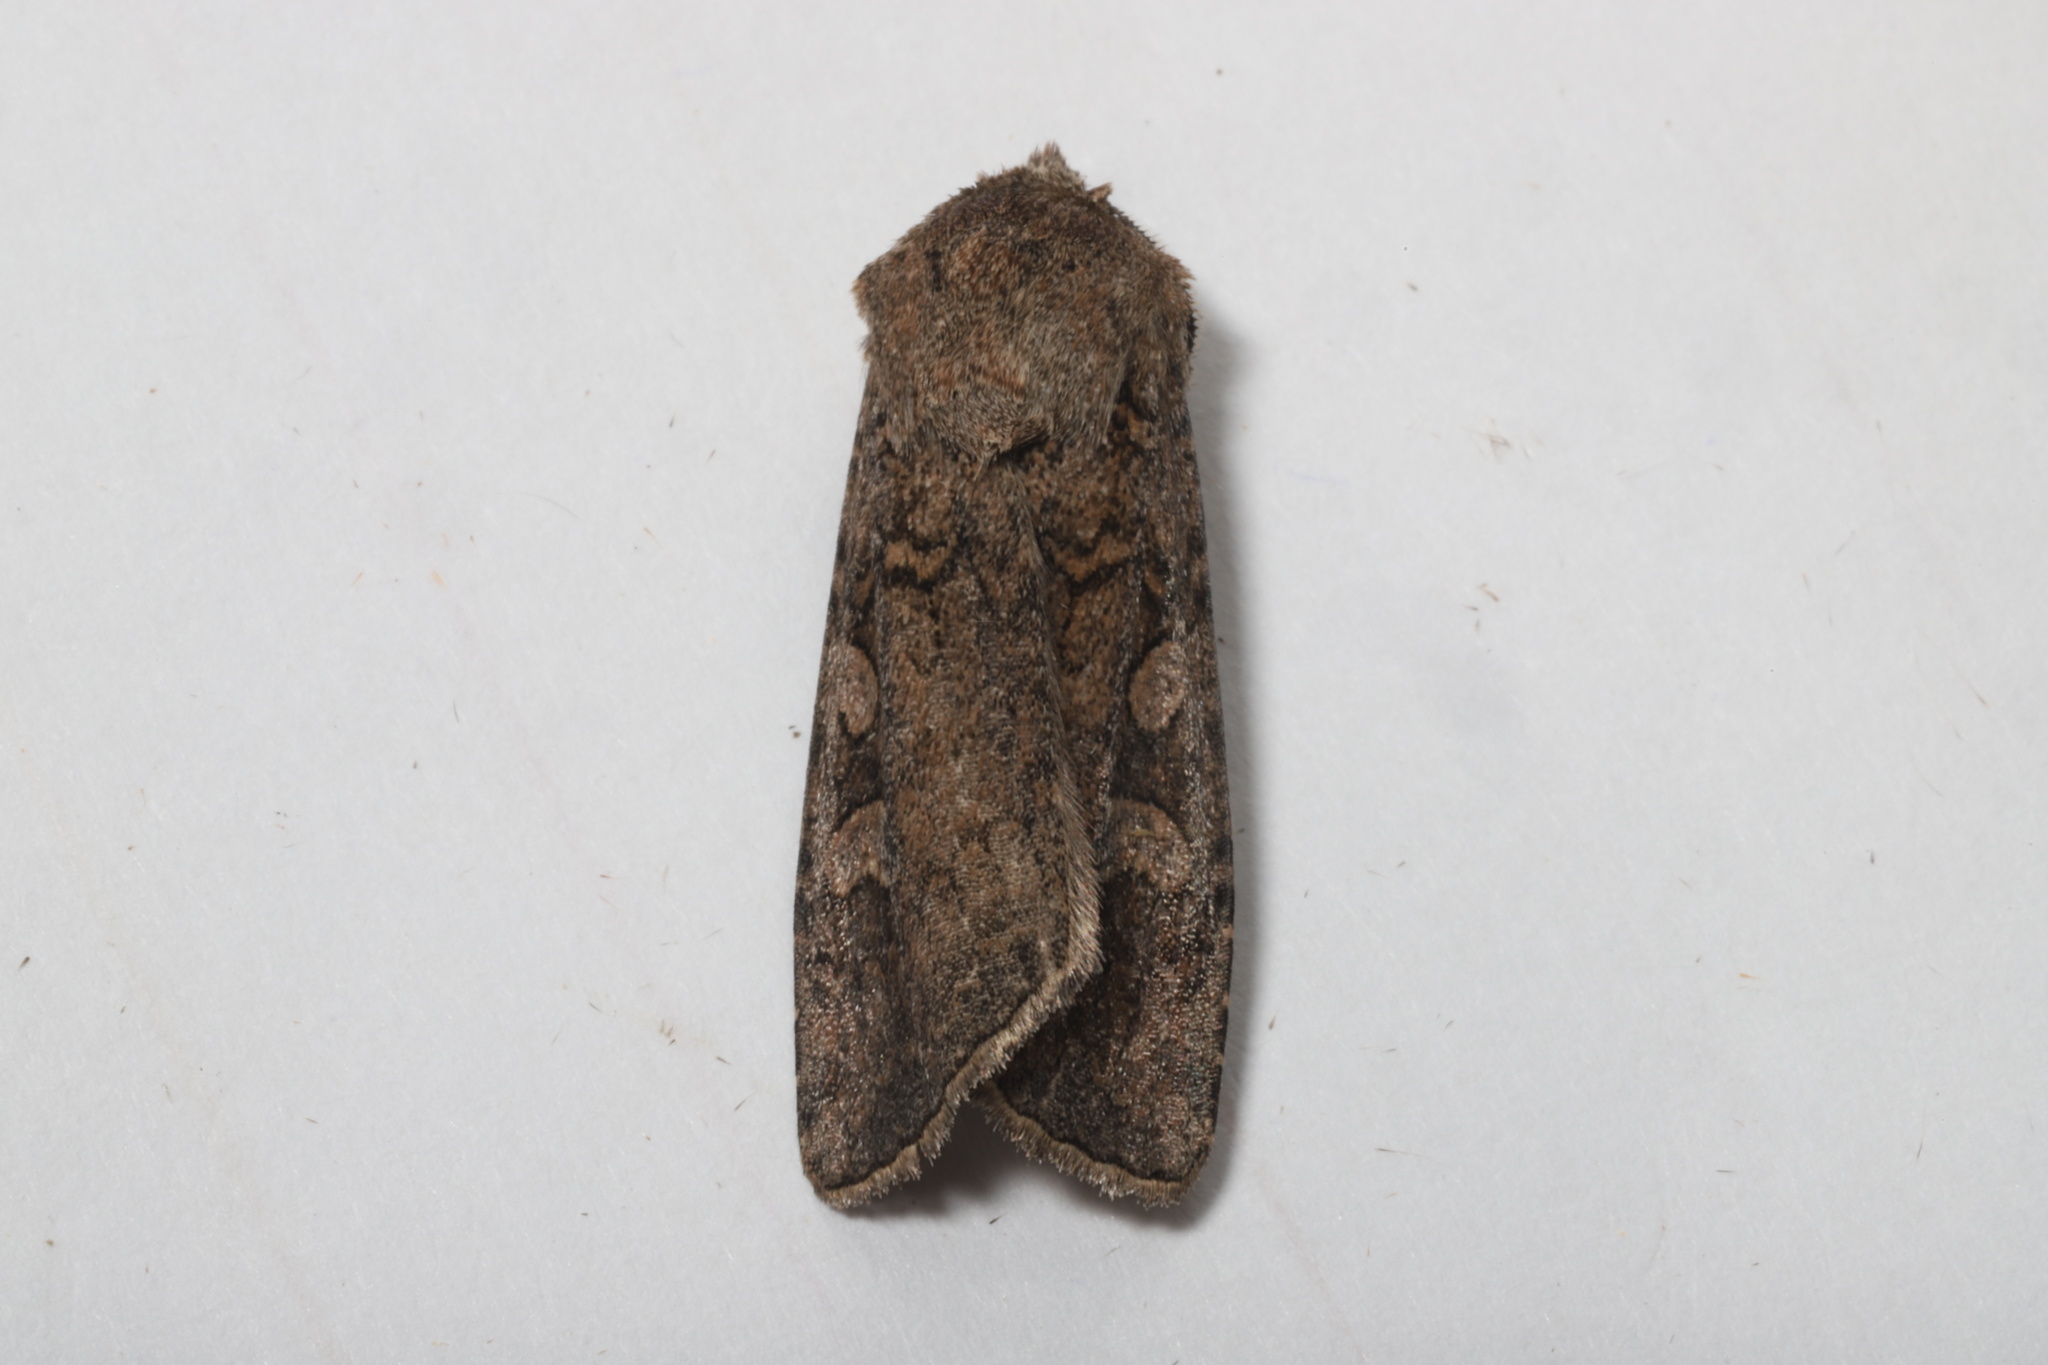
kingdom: Animalia
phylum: Arthropoda
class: Insecta
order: Lepidoptera
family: Noctuidae
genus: Euxoa
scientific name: Euxoa messoria
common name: Darksided cutworm
